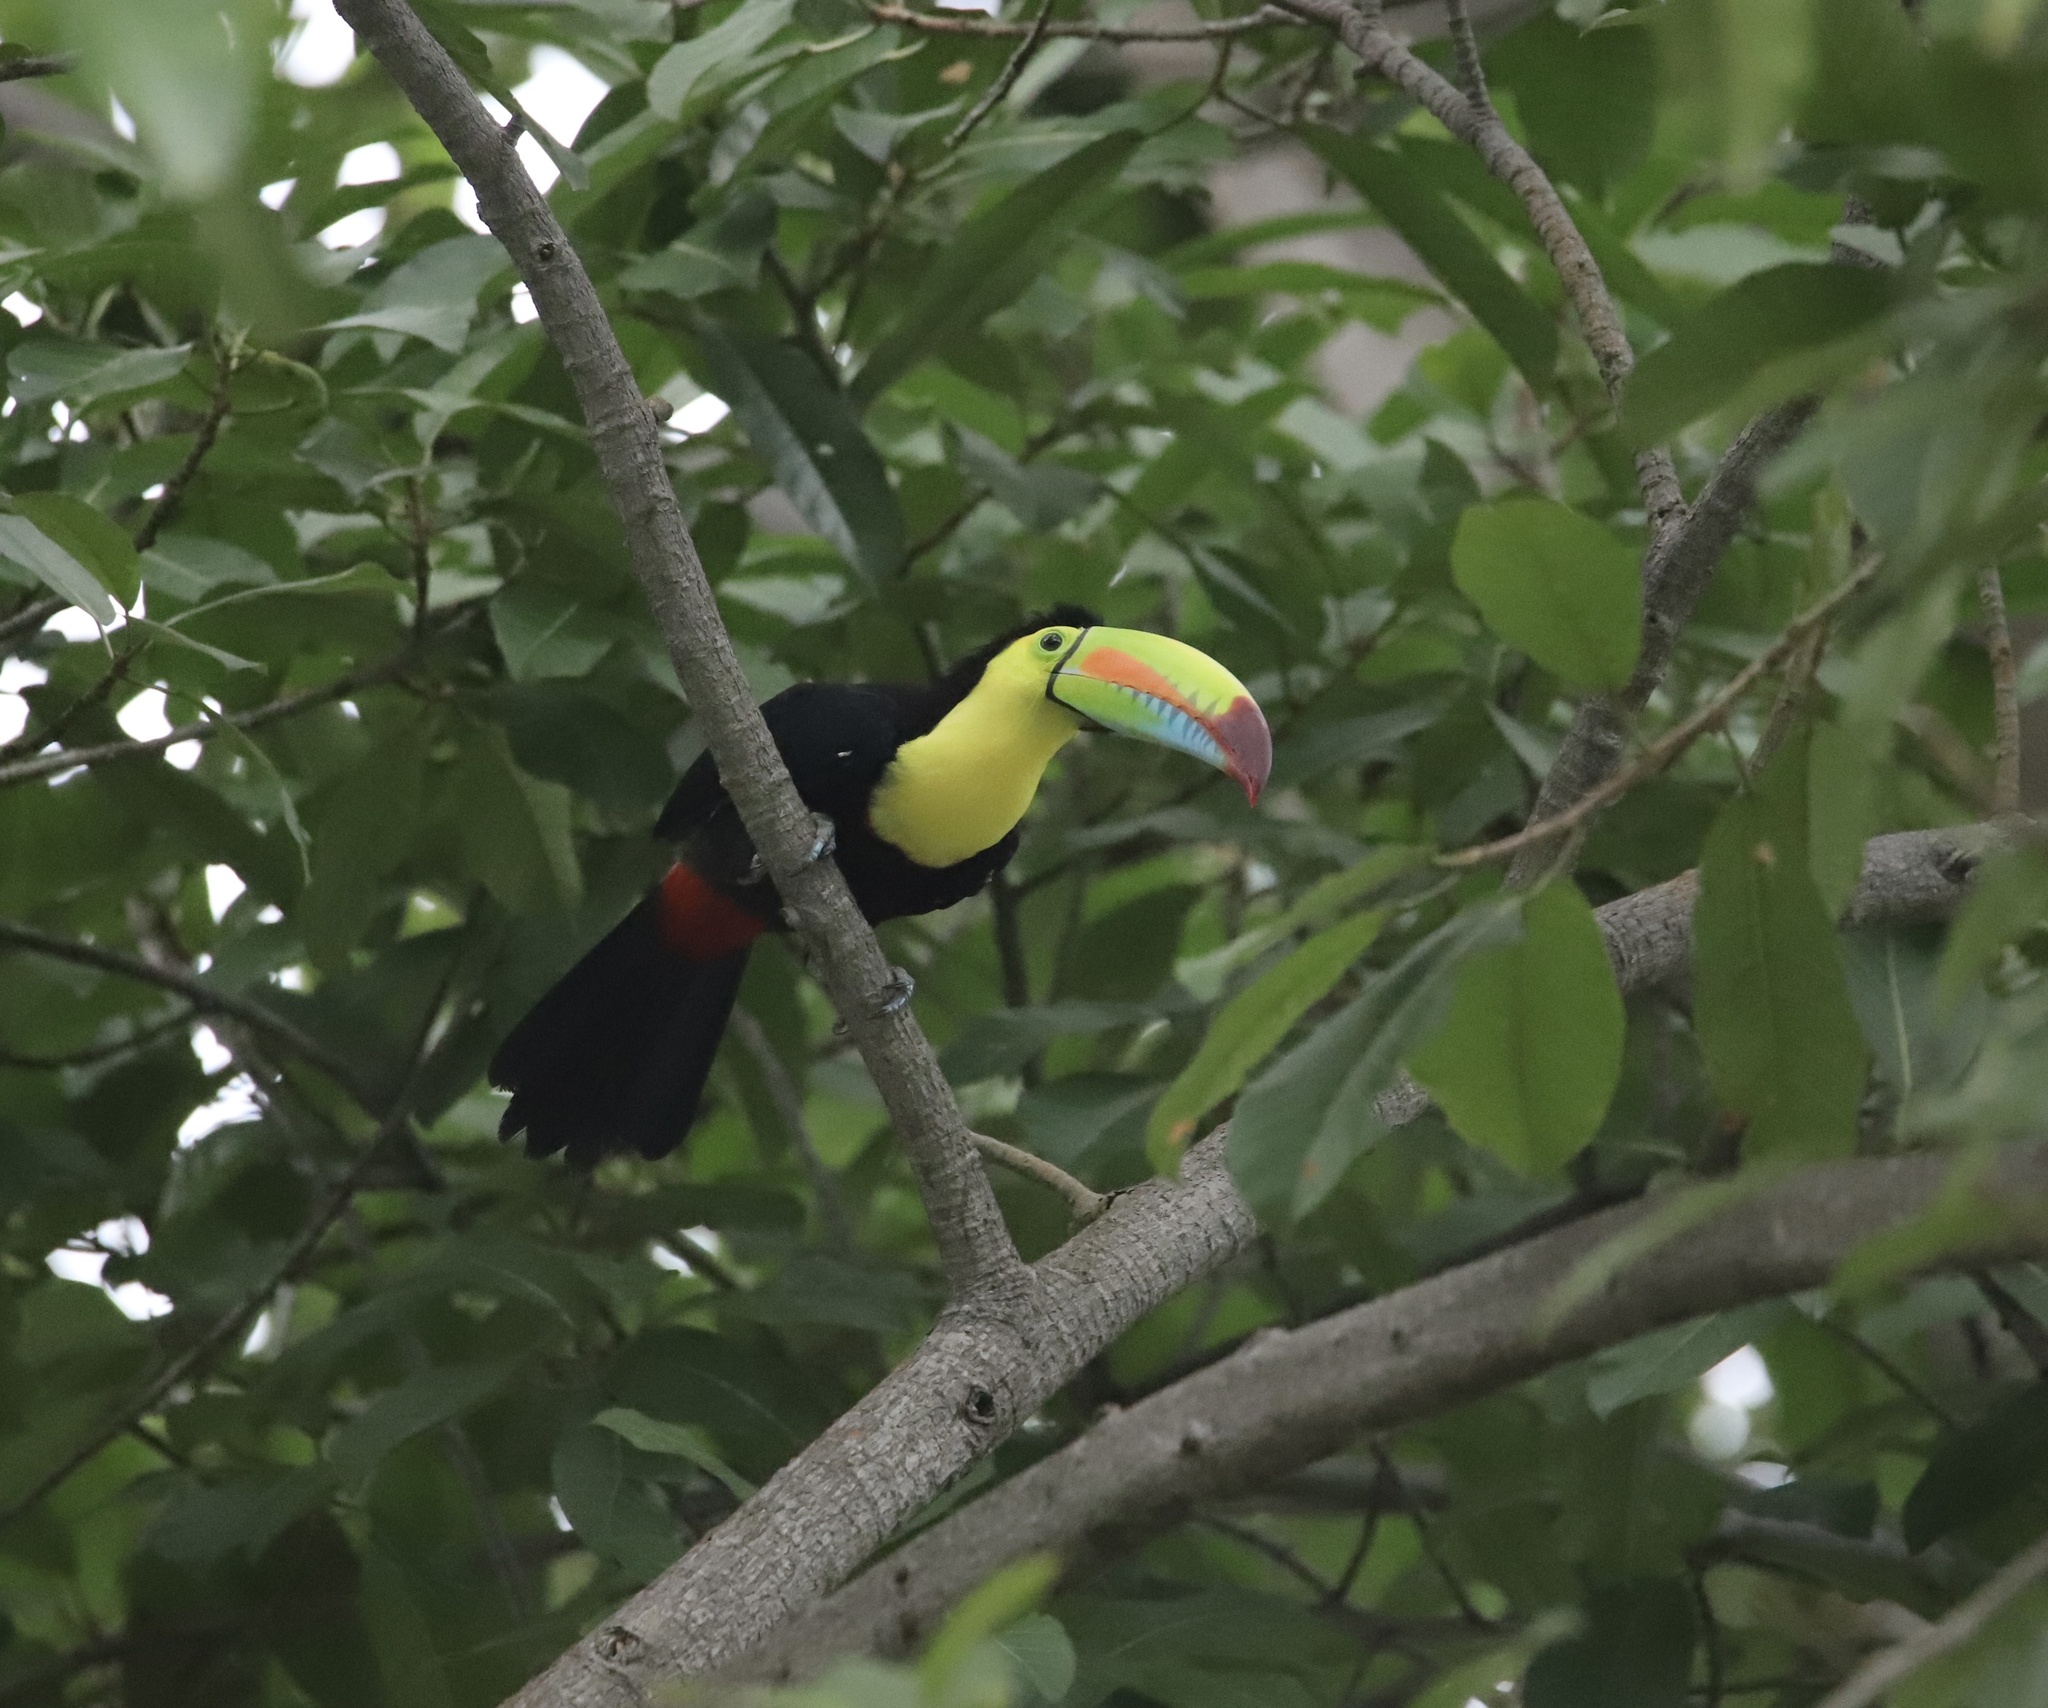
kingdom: Animalia
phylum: Chordata
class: Aves
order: Piciformes
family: Ramphastidae
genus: Ramphastos
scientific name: Ramphastos sulfuratus
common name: Keel-billed toucan
